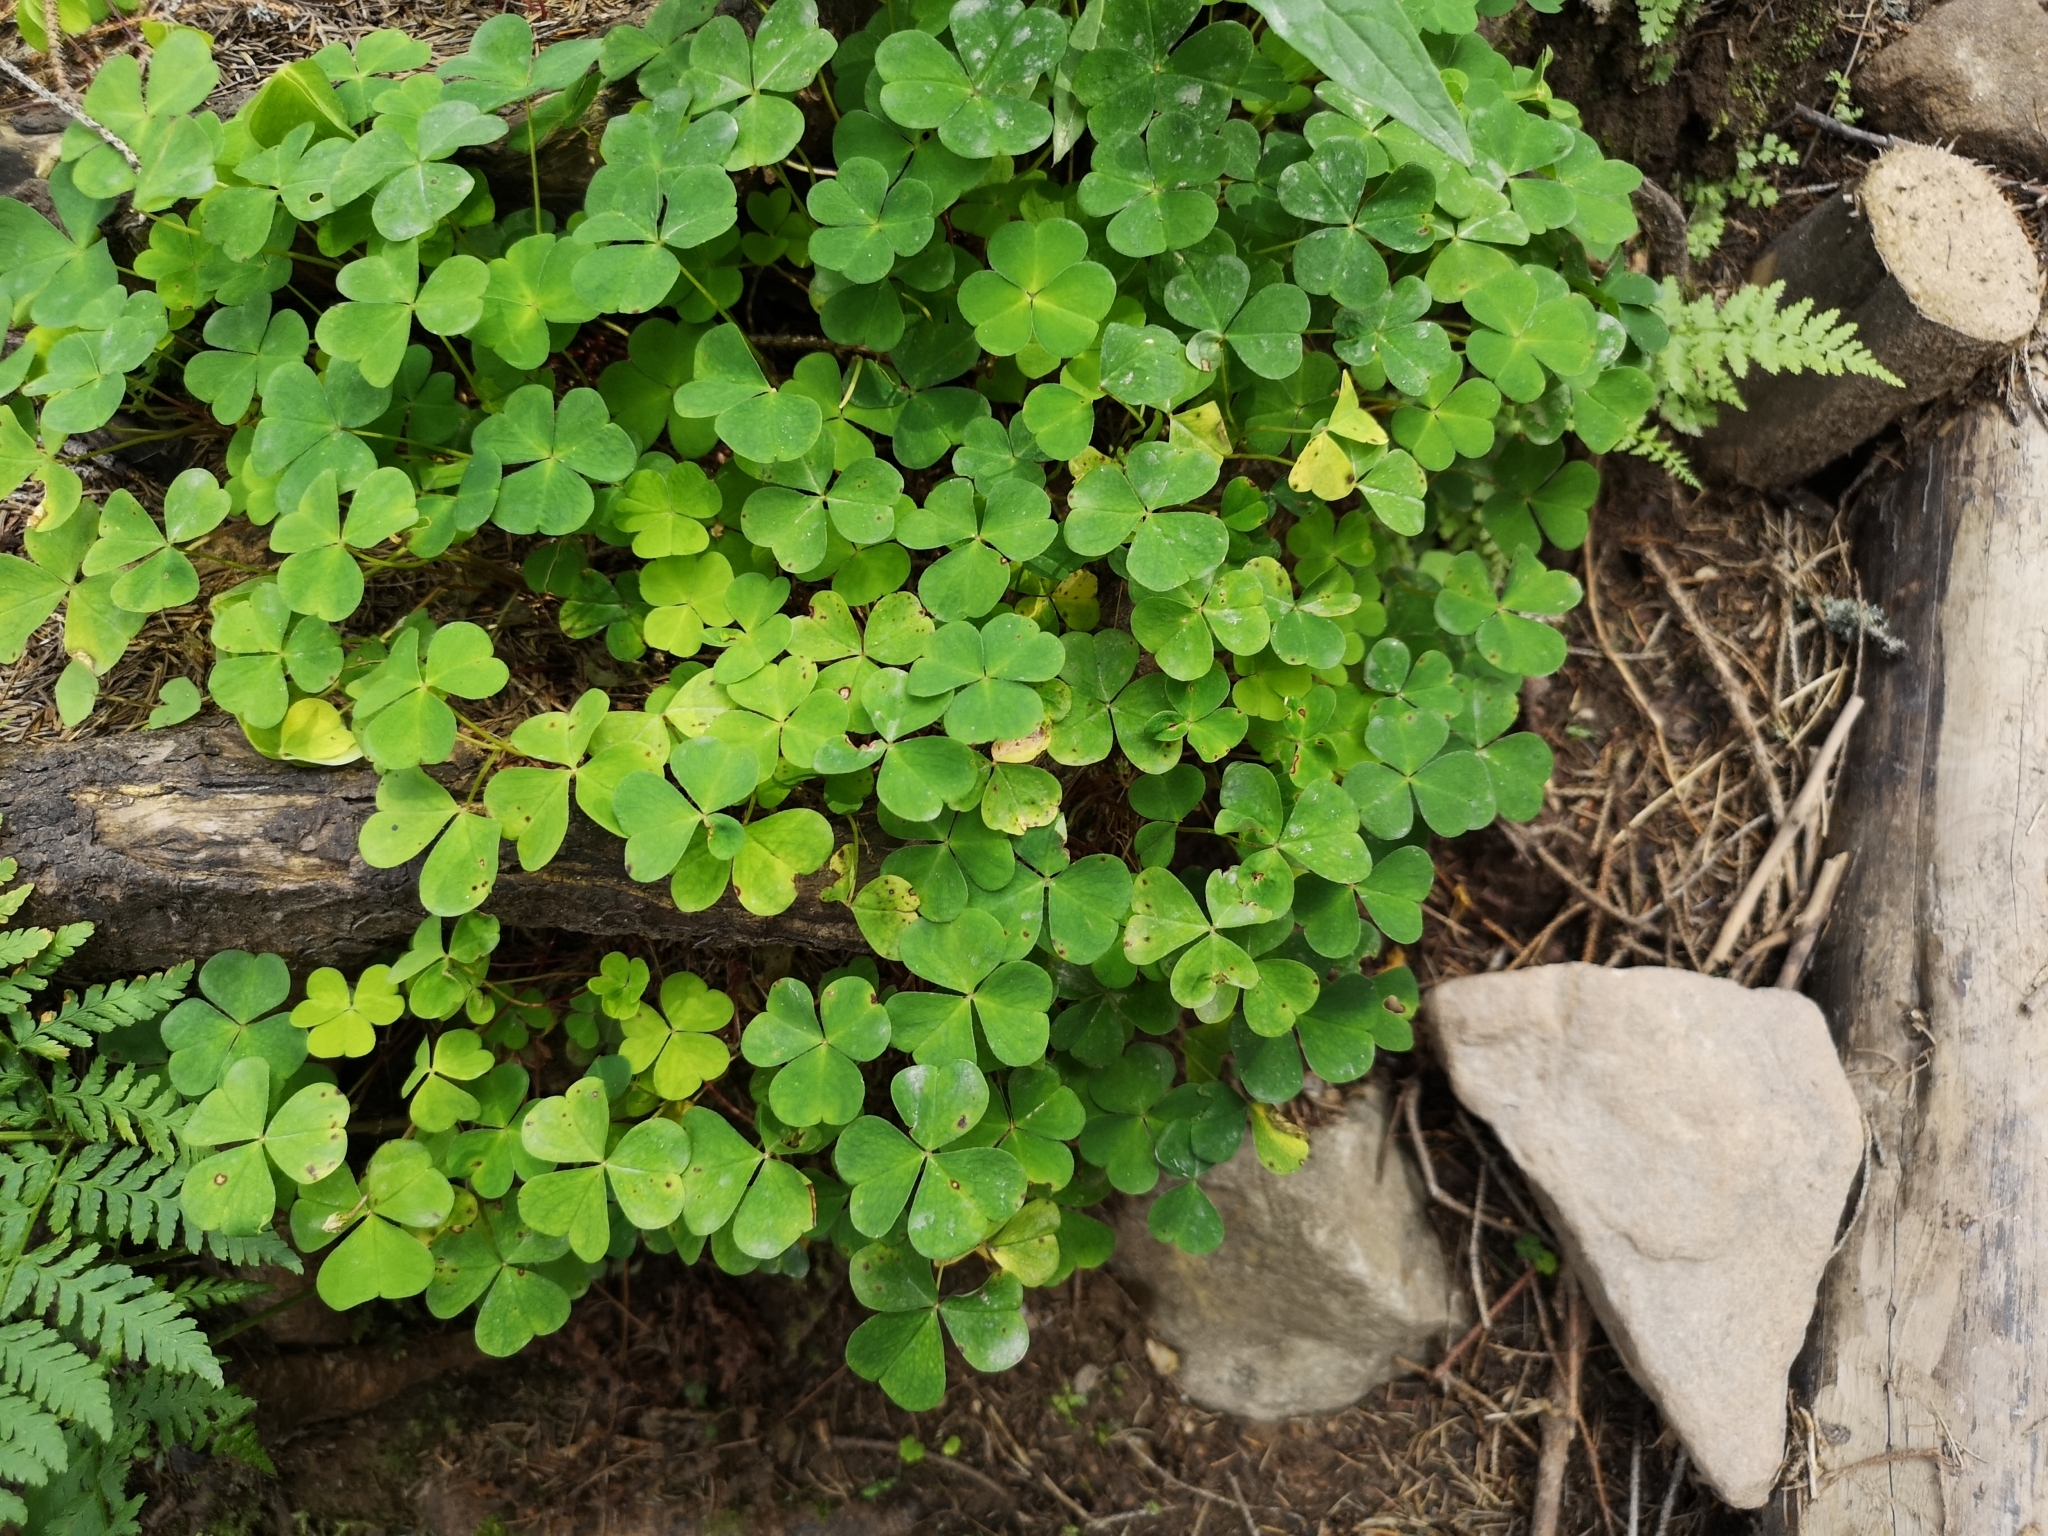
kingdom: Plantae
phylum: Tracheophyta
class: Magnoliopsida
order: Oxalidales
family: Oxalidaceae
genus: Oxalis
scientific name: Oxalis acetosella
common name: Wood-sorrel
